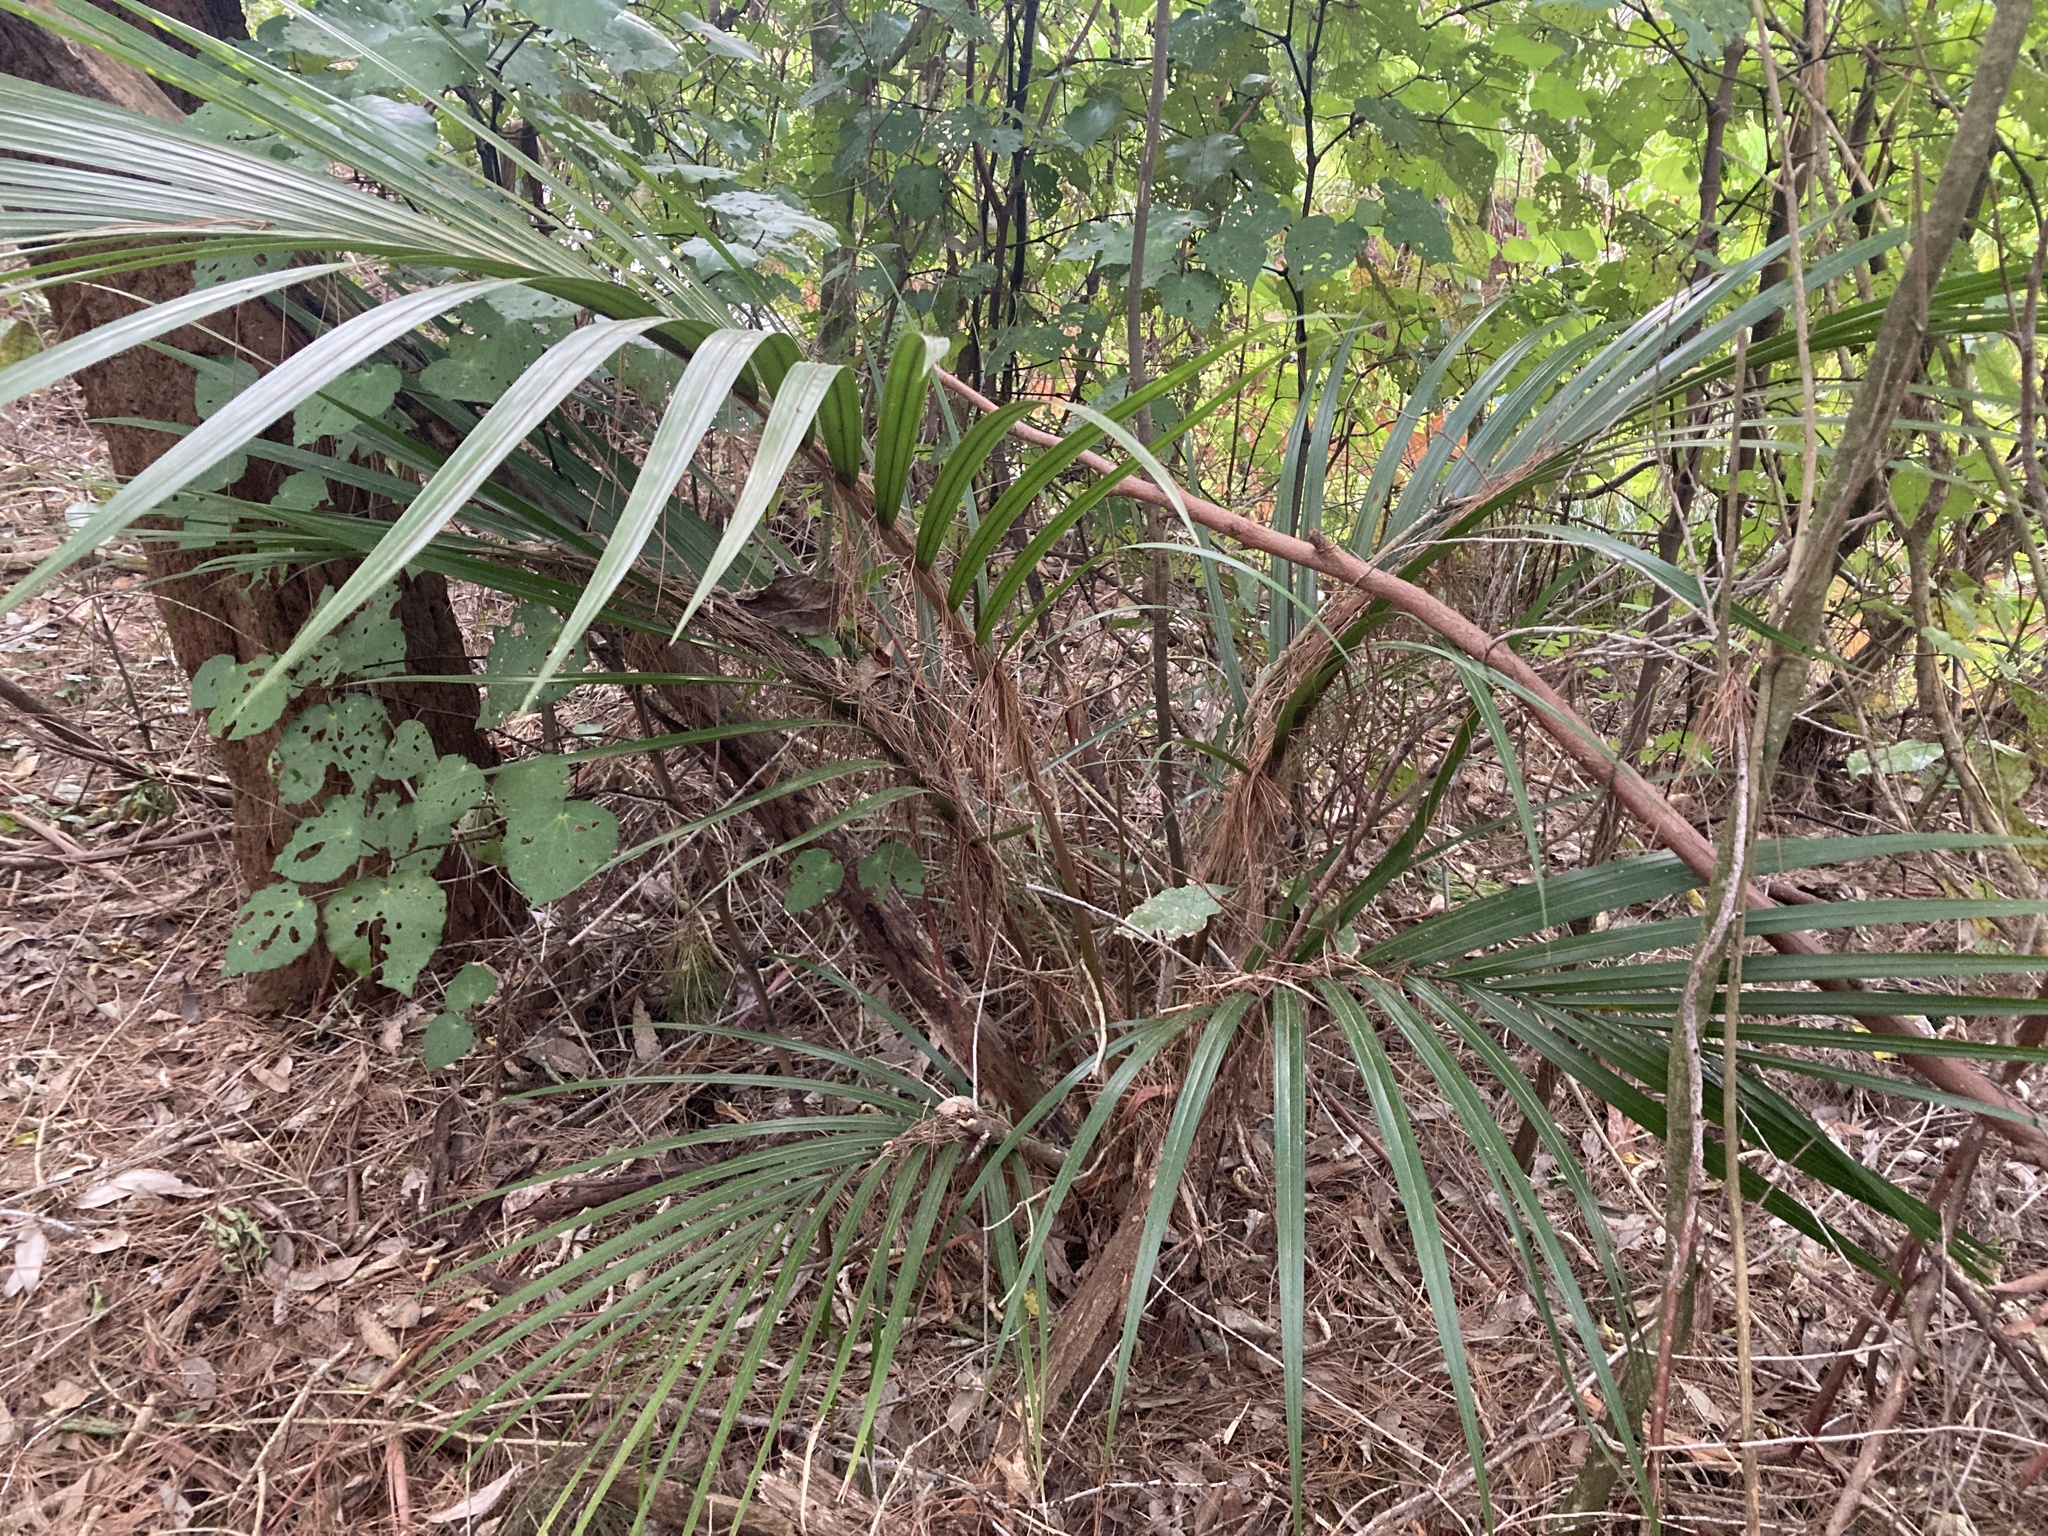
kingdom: Plantae
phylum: Tracheophyta
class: Liliopsida
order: Arecales
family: Arecaceae
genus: Rhopalostylis
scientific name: Rhopalostylis sapida
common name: Feather-duster palm
